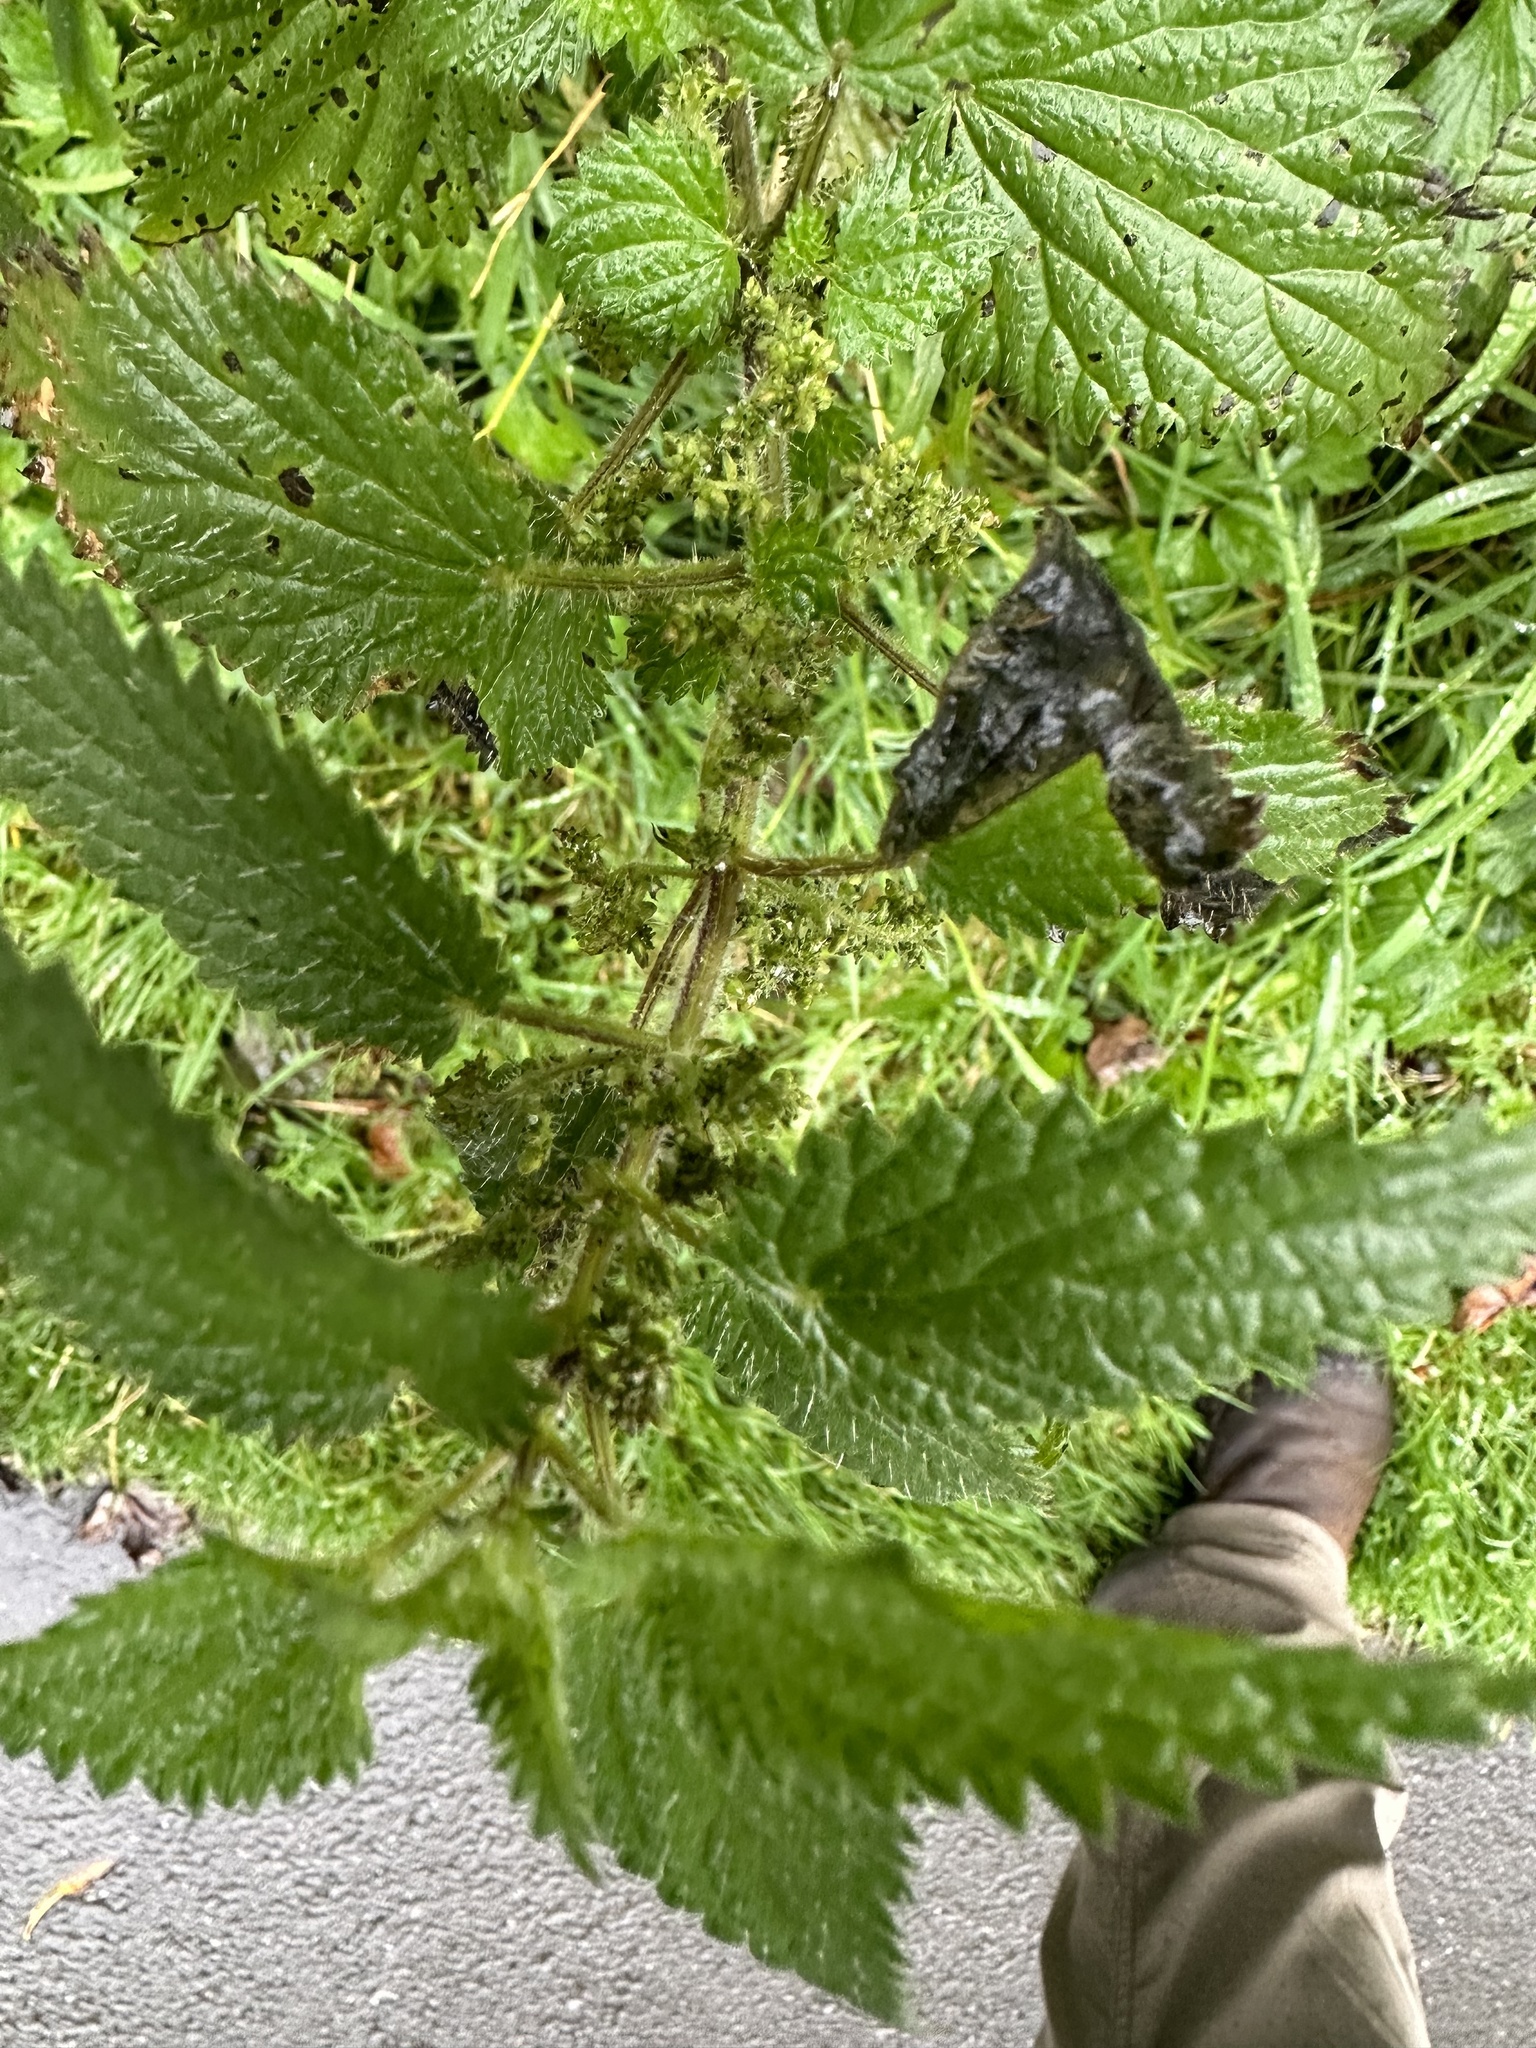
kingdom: Plantae
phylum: Tracheophyta
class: Magnoliopsida
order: Rosales
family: Urticaceae
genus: Urtica
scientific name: Urtica dioica
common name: Common nettle
